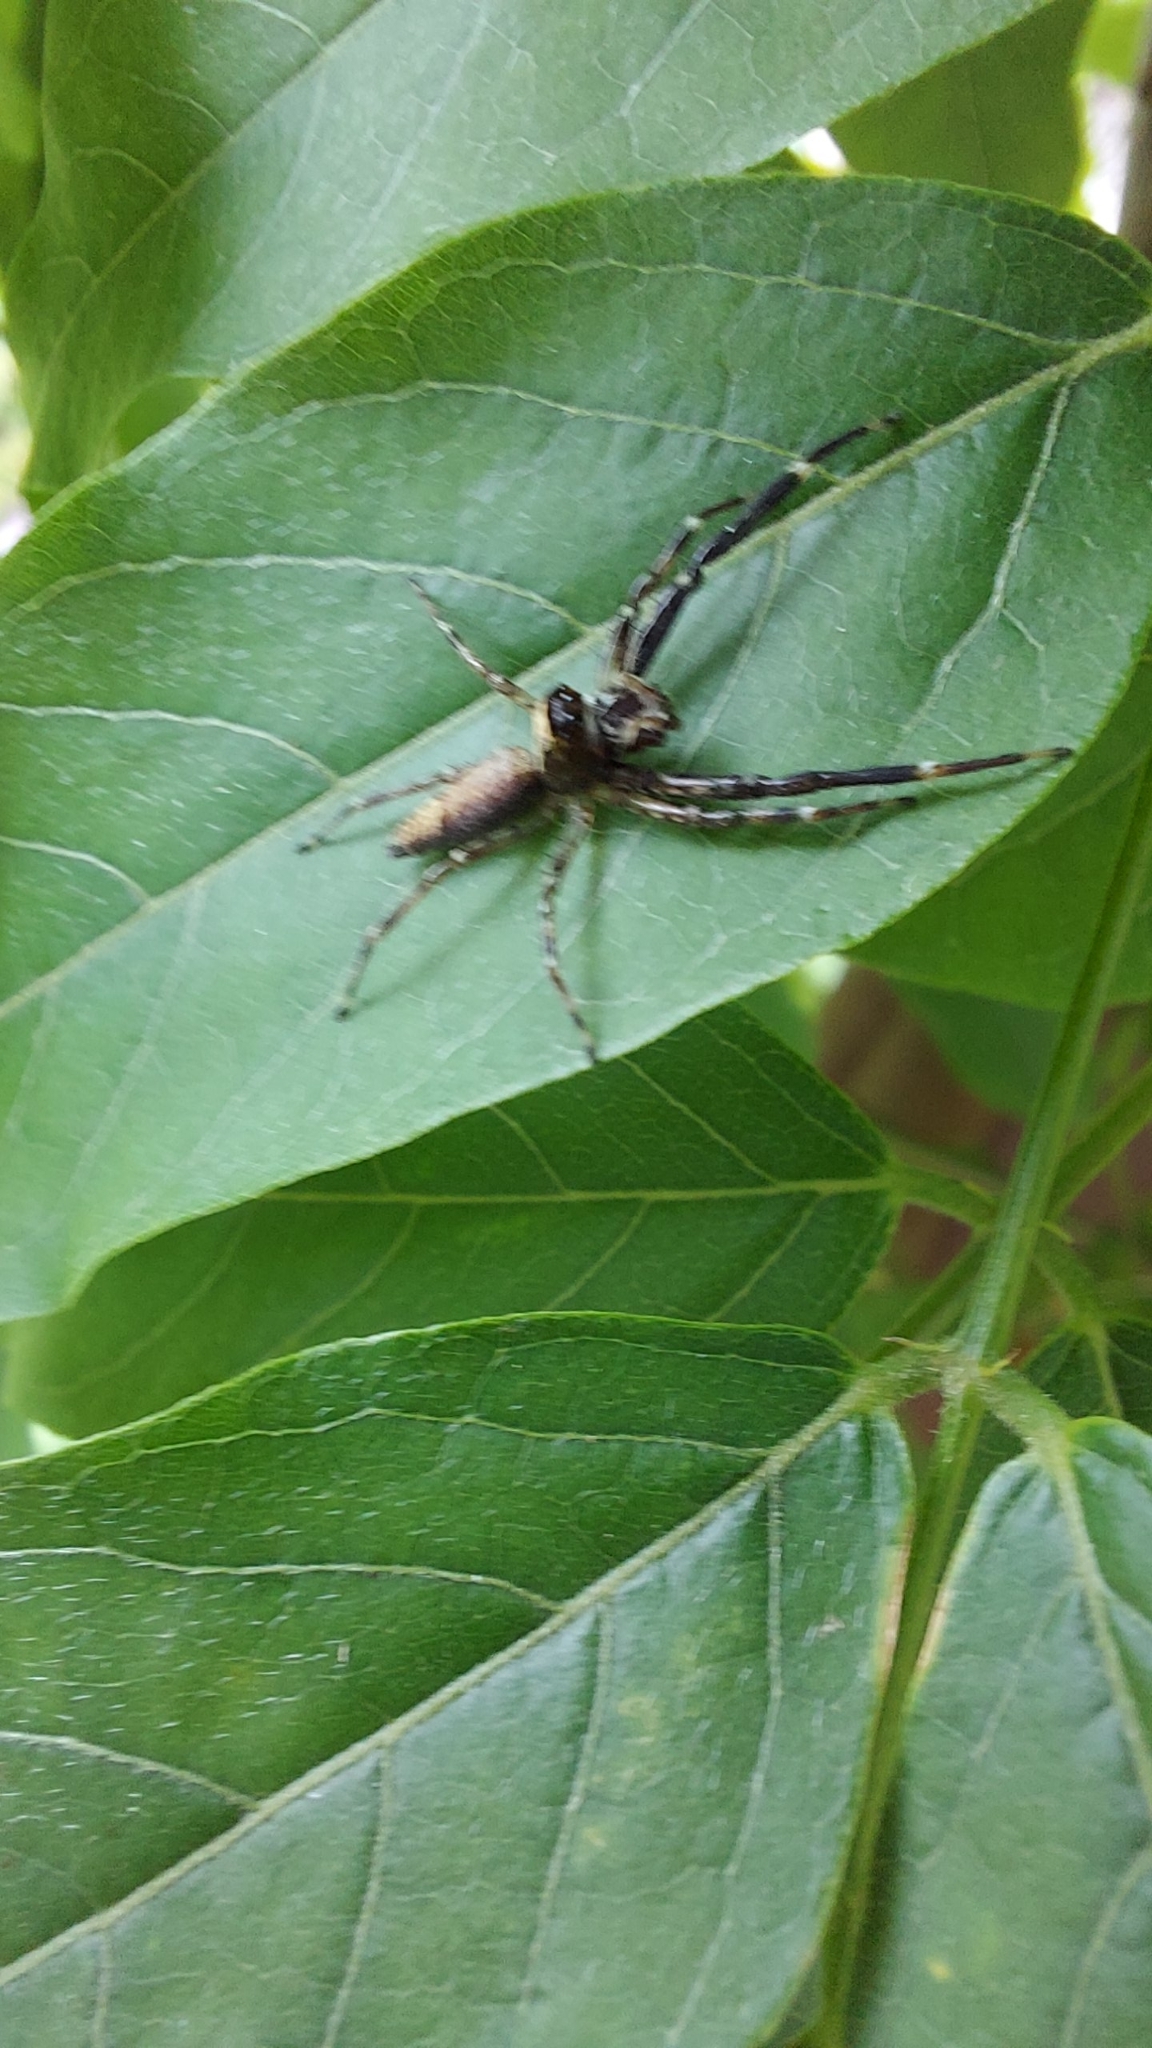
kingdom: Animalia
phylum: Arthropoda
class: Arachnida
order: Araneae
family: Salticidae
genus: Helpis
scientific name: Helpis minitabunda
